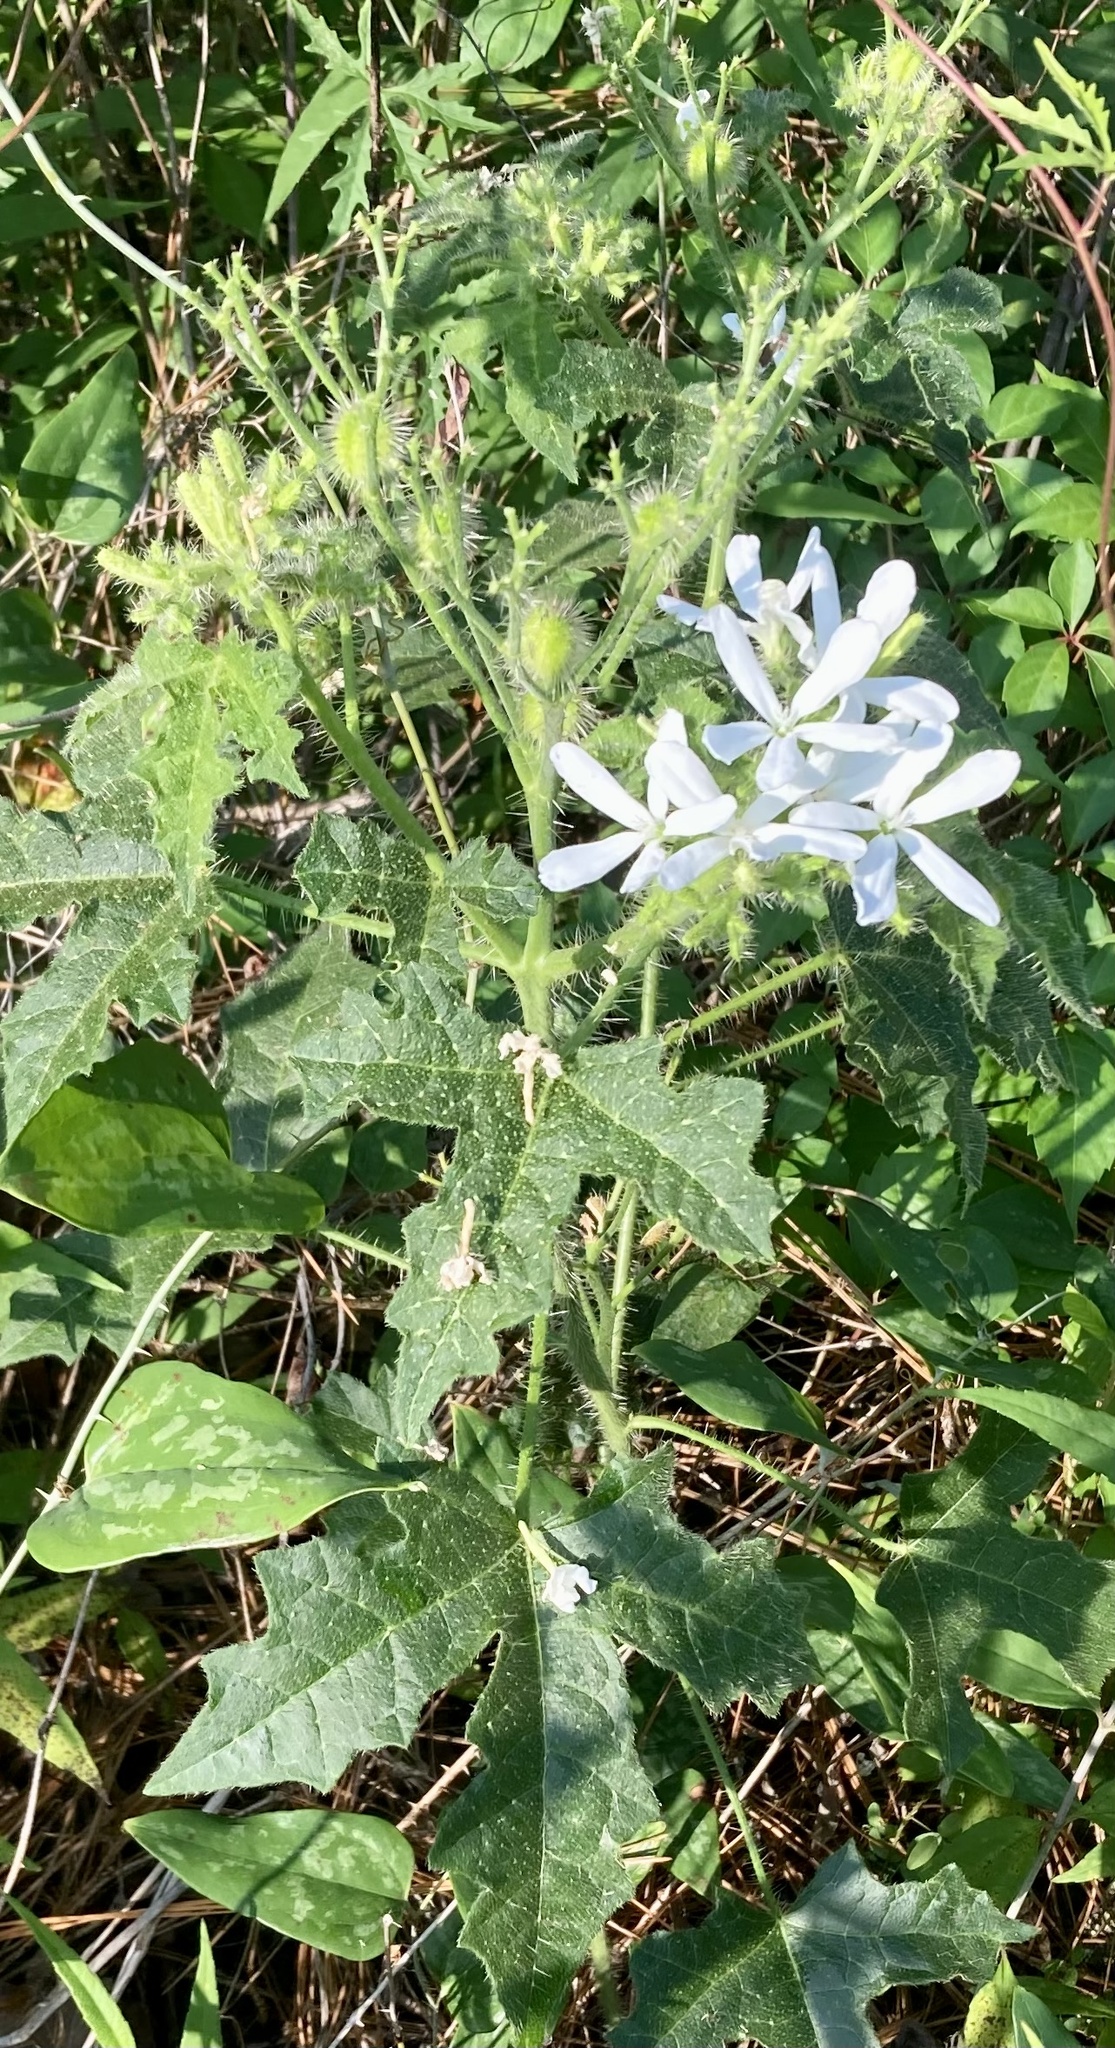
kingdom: Plantae
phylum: Tracheophyta
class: Magnoliopsida
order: Malpighiales
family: Euphorbiaceae
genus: Cnidoscolus
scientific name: Cnidoscolus stimulosus
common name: Bull-nettle
